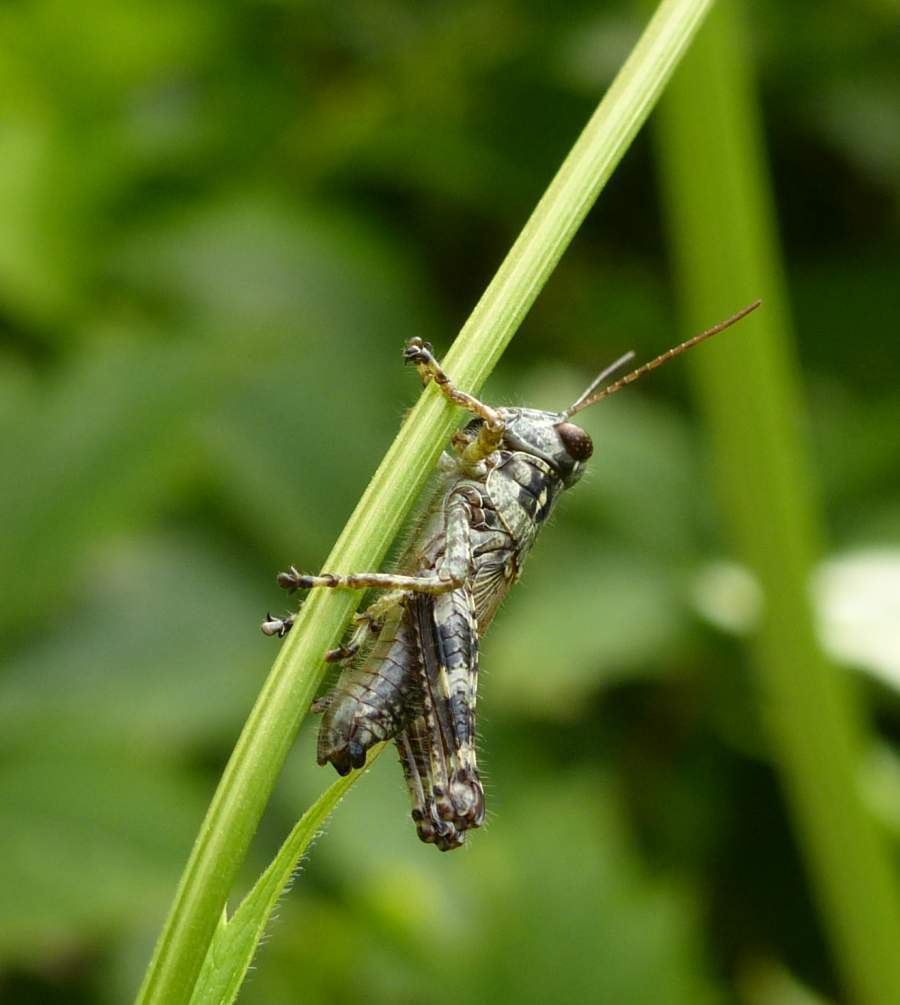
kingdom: Animalia
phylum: Arthropoda
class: Insecta
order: Orthoptera
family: Acrididae
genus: Melanoplus
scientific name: Melanoplus punctulatus
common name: Pine-tree spur-throat grasshopper
